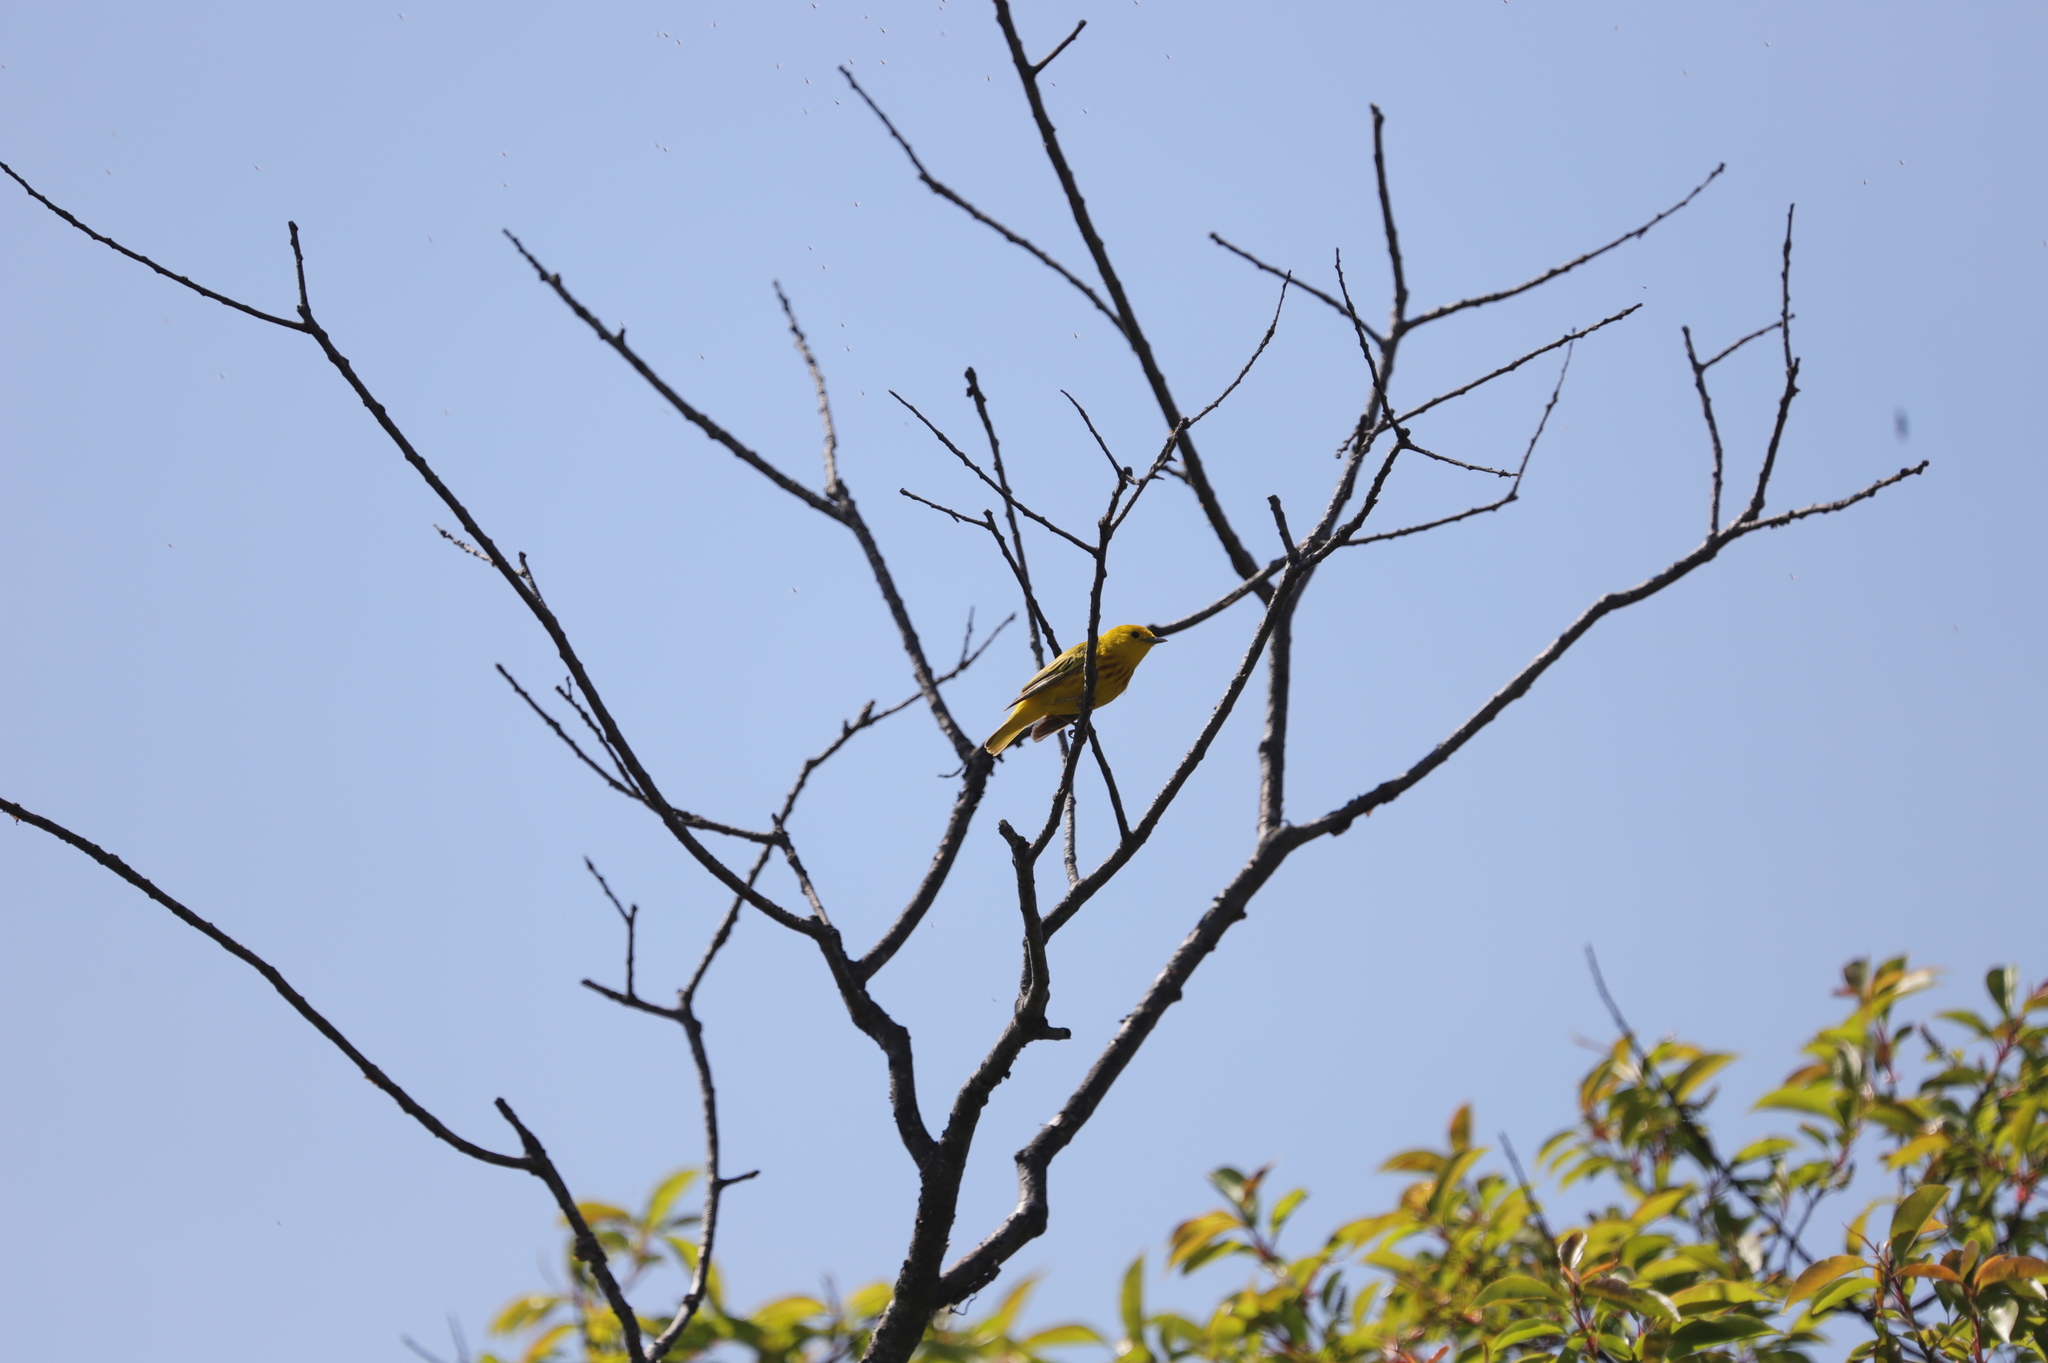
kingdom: Animalia
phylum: Chordata
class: Aves
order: Passeriformes
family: Parulidae
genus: Setophaga
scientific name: Setophaga petechia
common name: Yellow warbler
